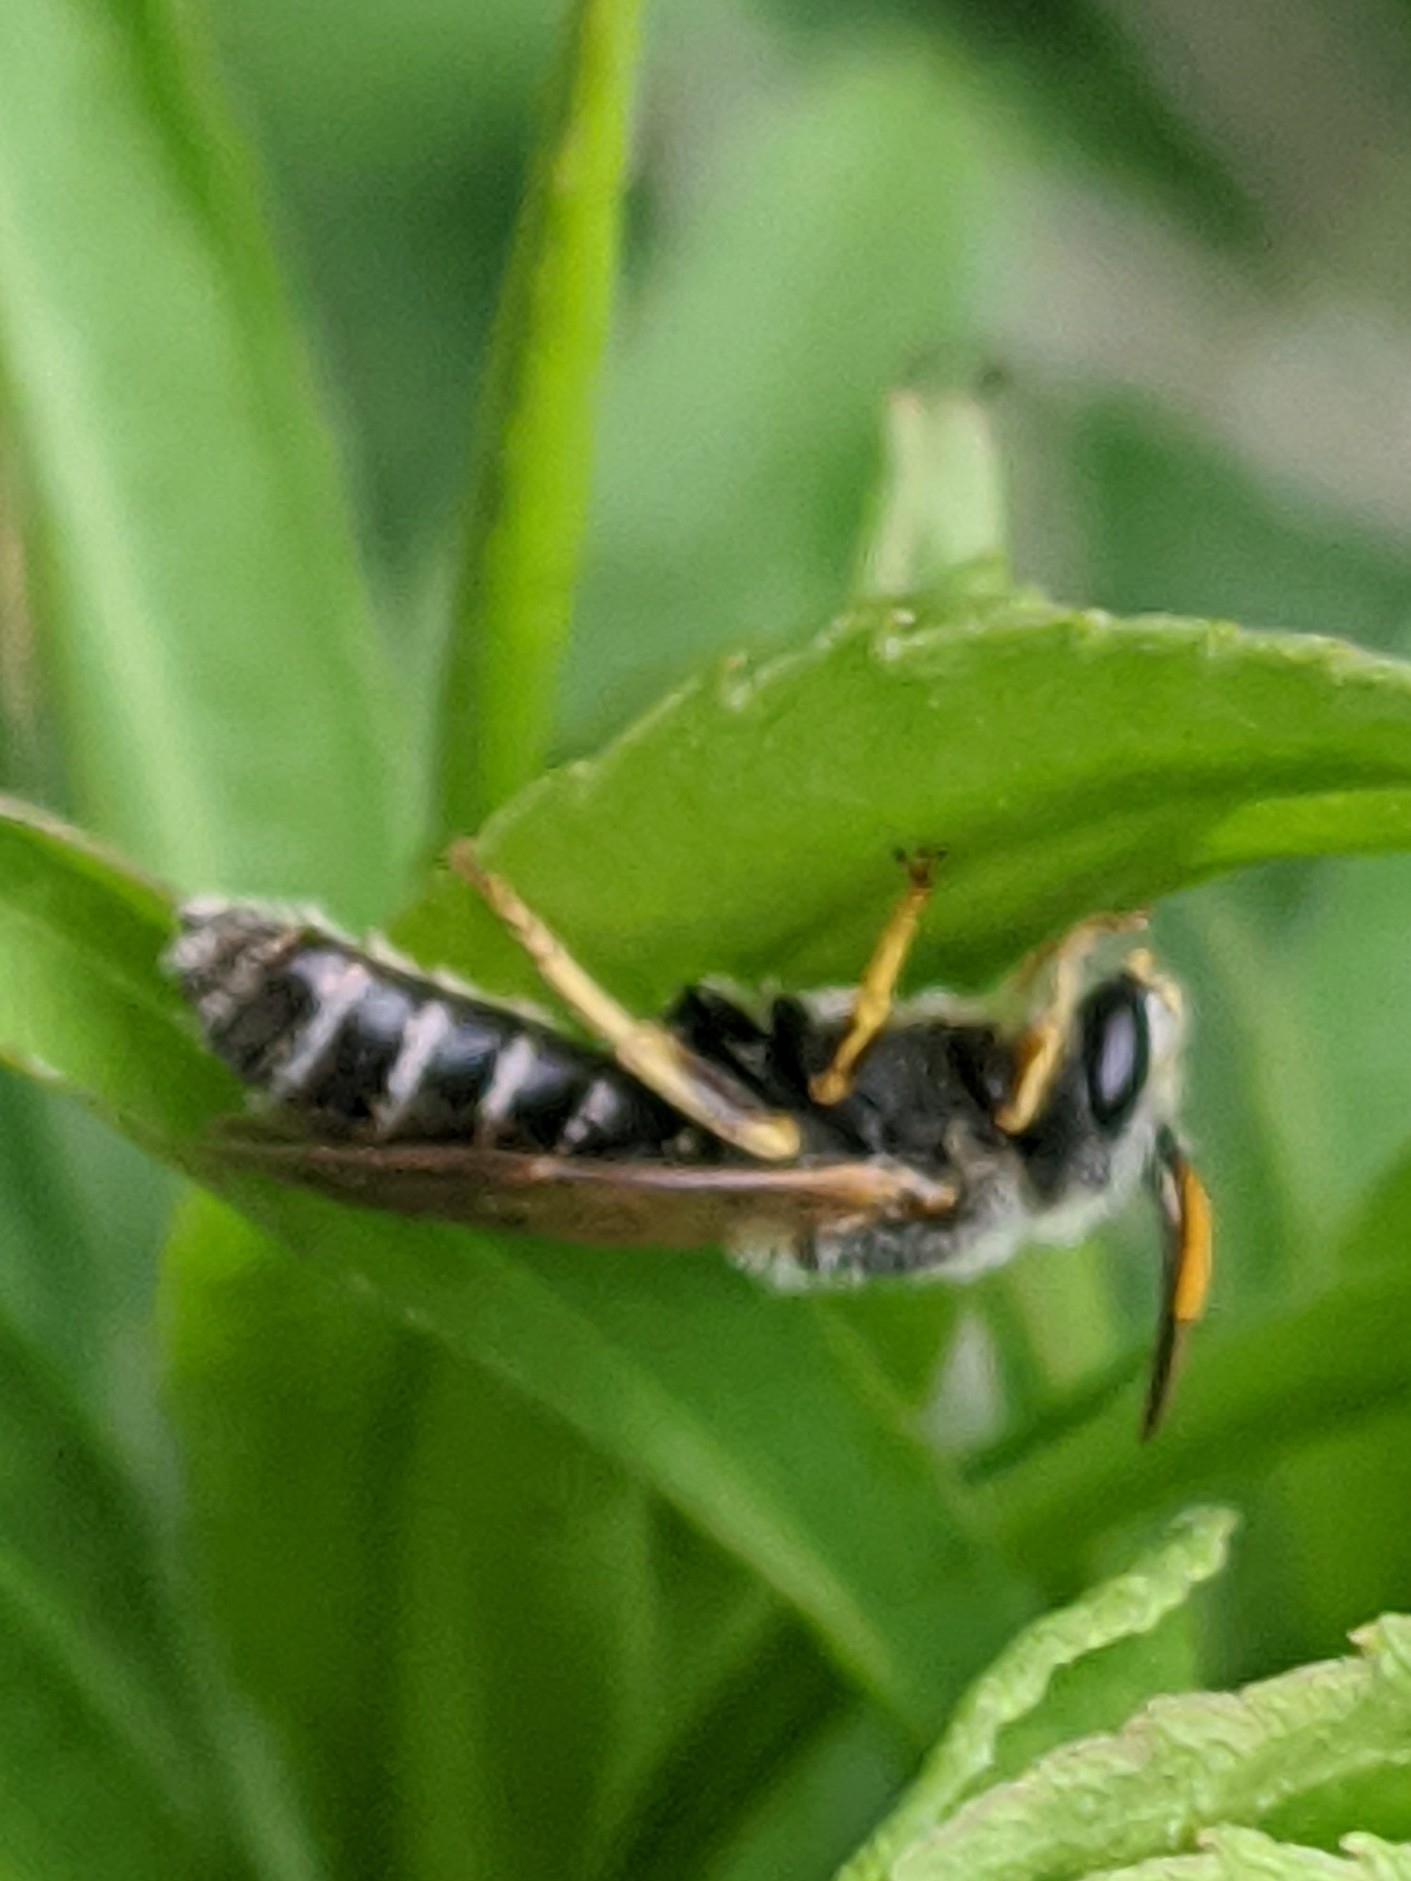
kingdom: Animalia
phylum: Arthropoda
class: Insecta
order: Hymenoptera
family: Halictidae
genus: Halictus
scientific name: Halictus ligatus
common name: Ligated furrow bee
